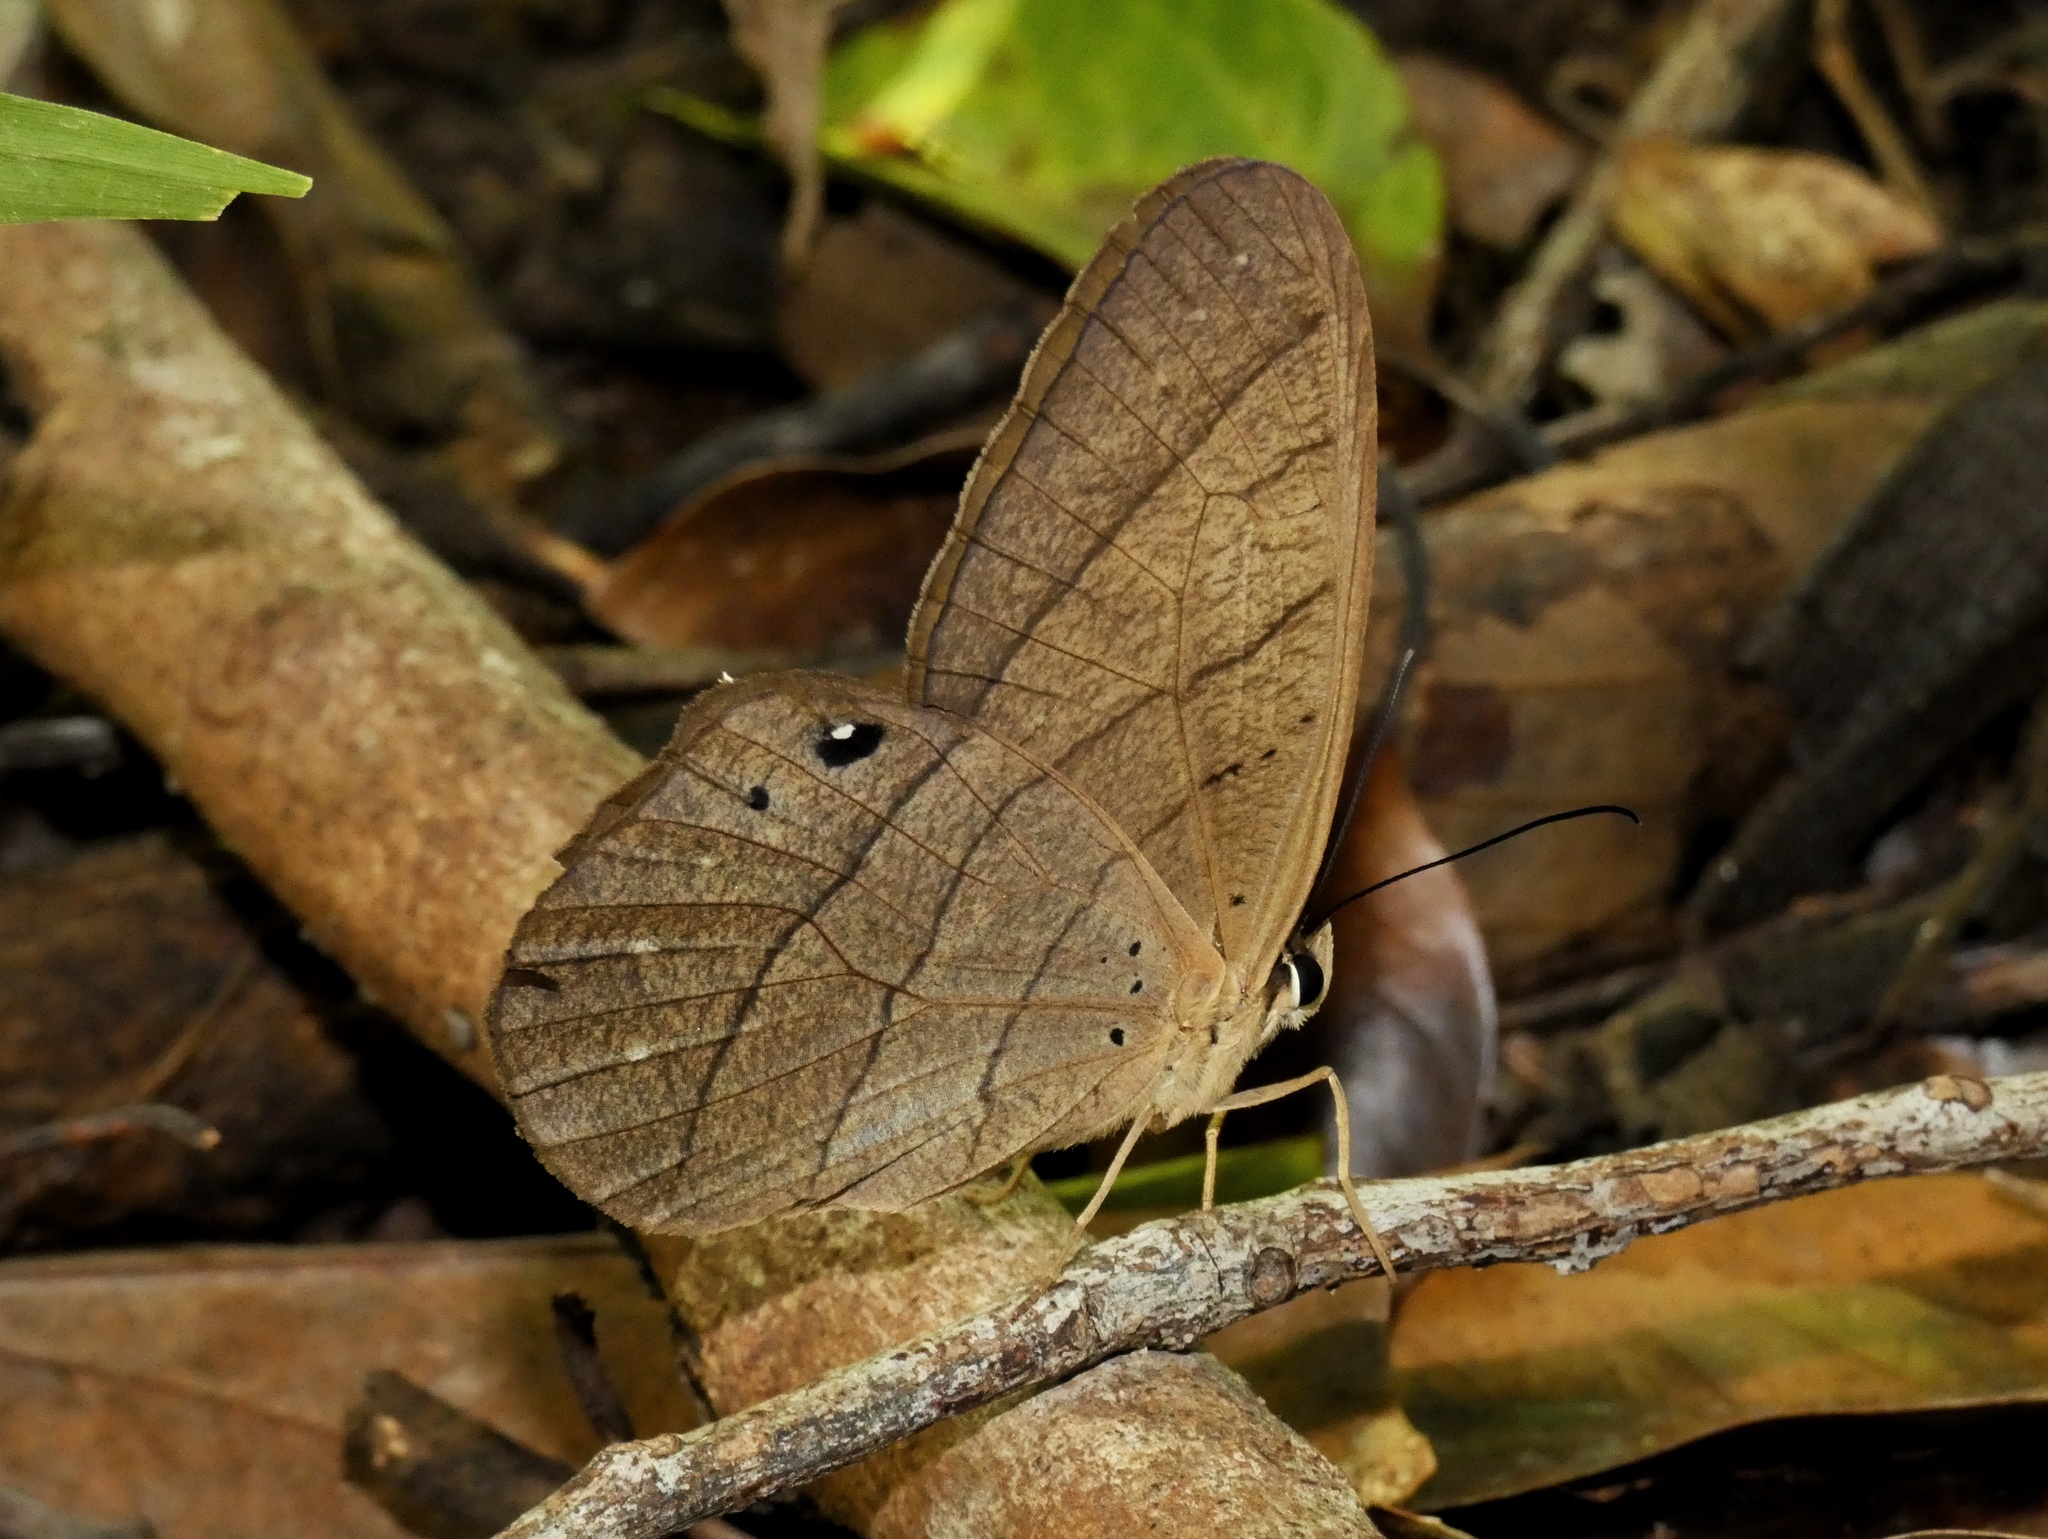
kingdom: Animalia
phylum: Arthropoda
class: Insecta
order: Lepidoptera
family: Nymphalidae
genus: Pierella
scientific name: Pierella luna
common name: Moon satyr
